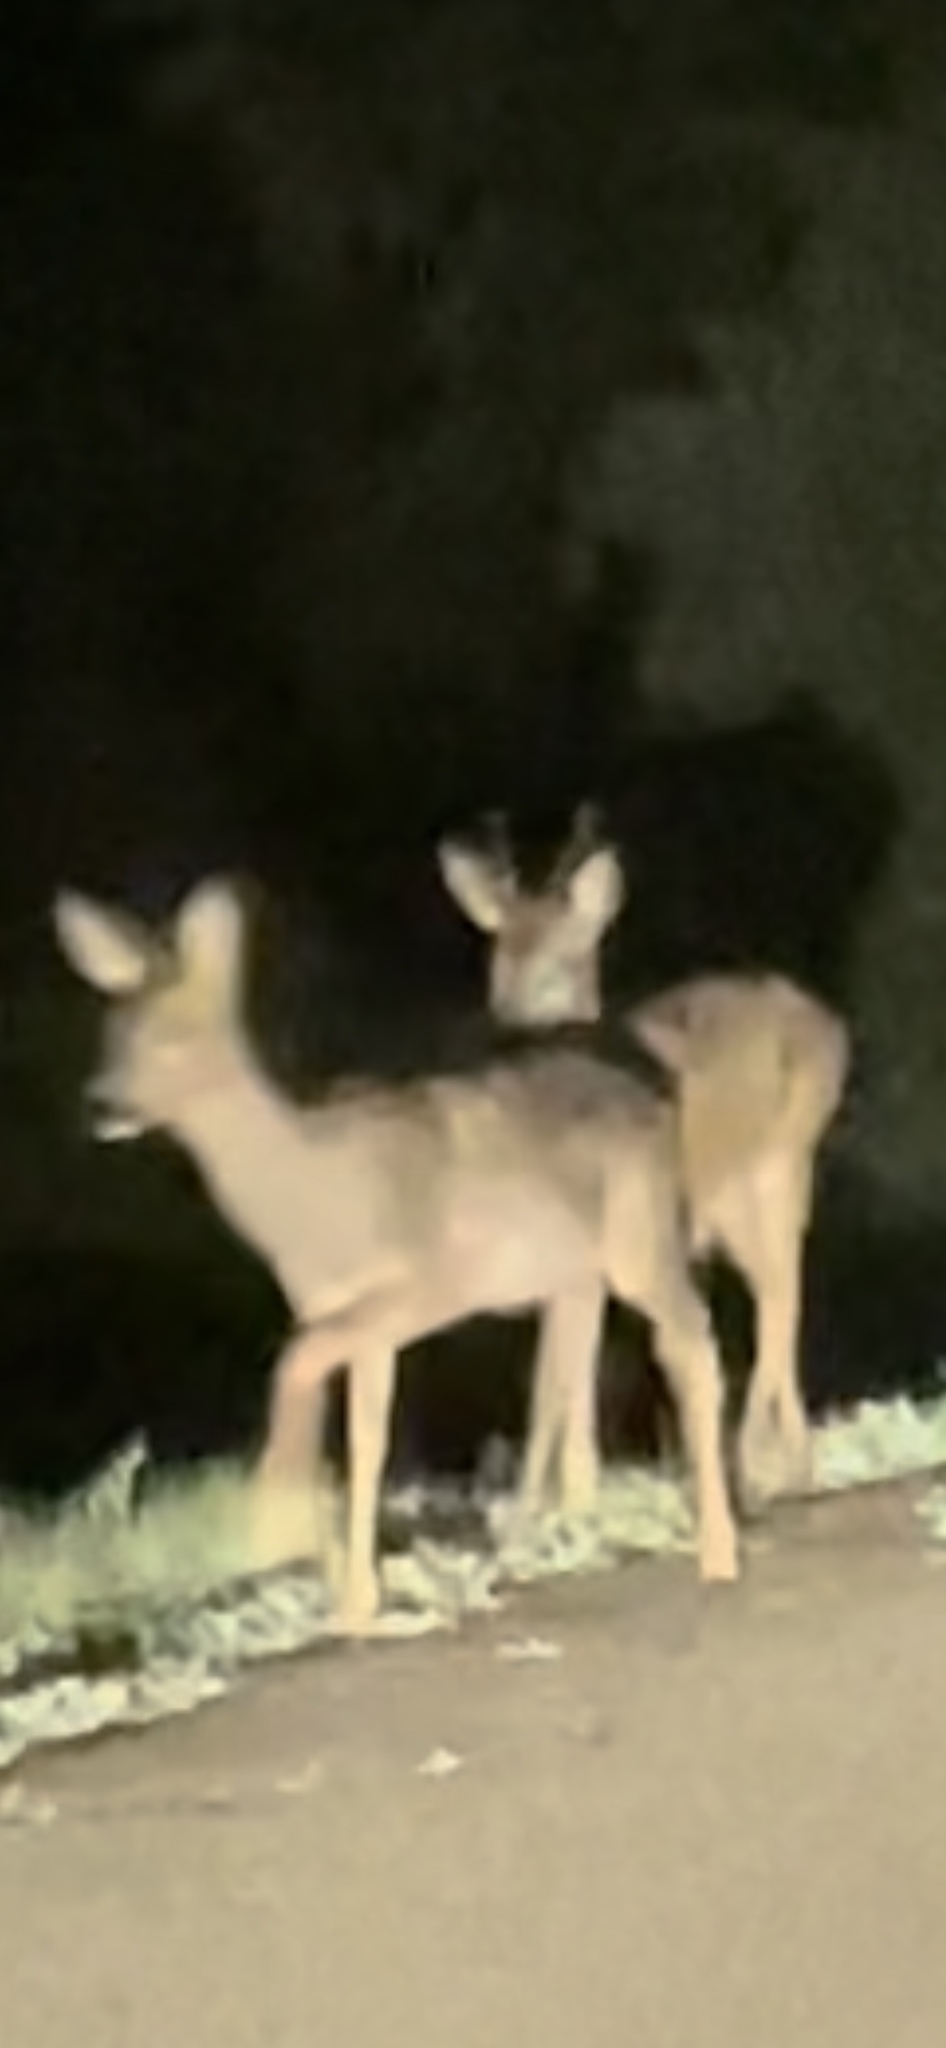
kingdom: Animalia
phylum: Chordata
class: Mammalia
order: Artiodactyla
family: Cervidae
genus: Capreolus
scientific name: Capreolus capreolus
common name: Western roe deer
